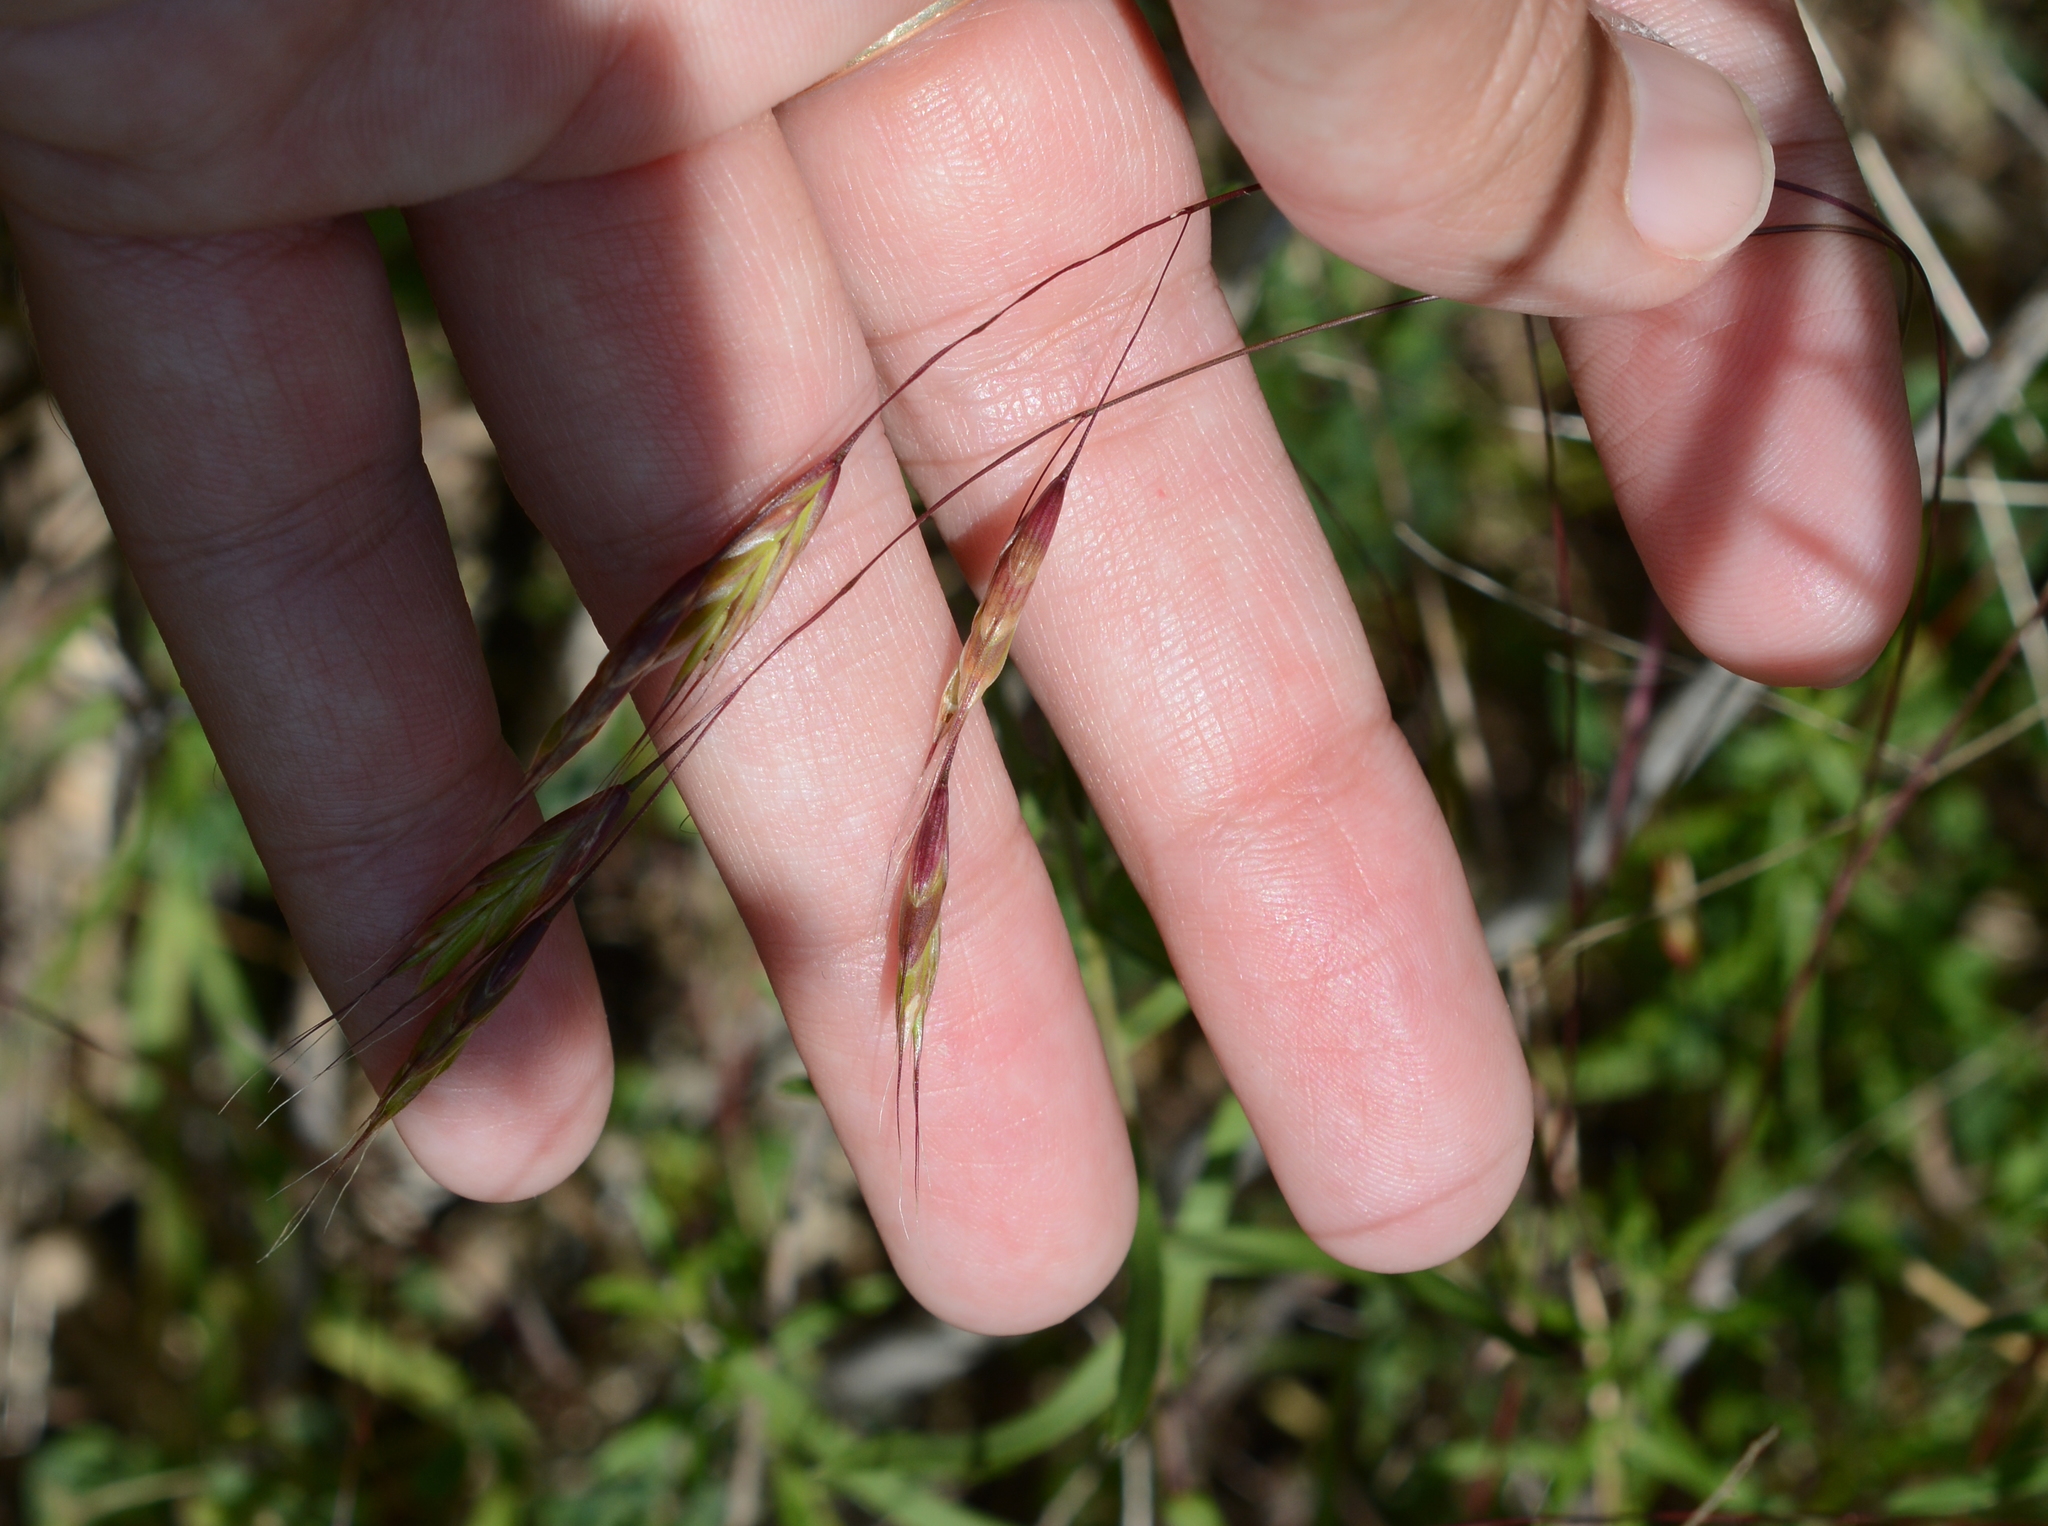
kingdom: Plantae
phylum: Tracheophyta
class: Liliopsida
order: Poales
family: Poaceae
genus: Bromus
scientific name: Bromus japonicus
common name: Japanese brome
